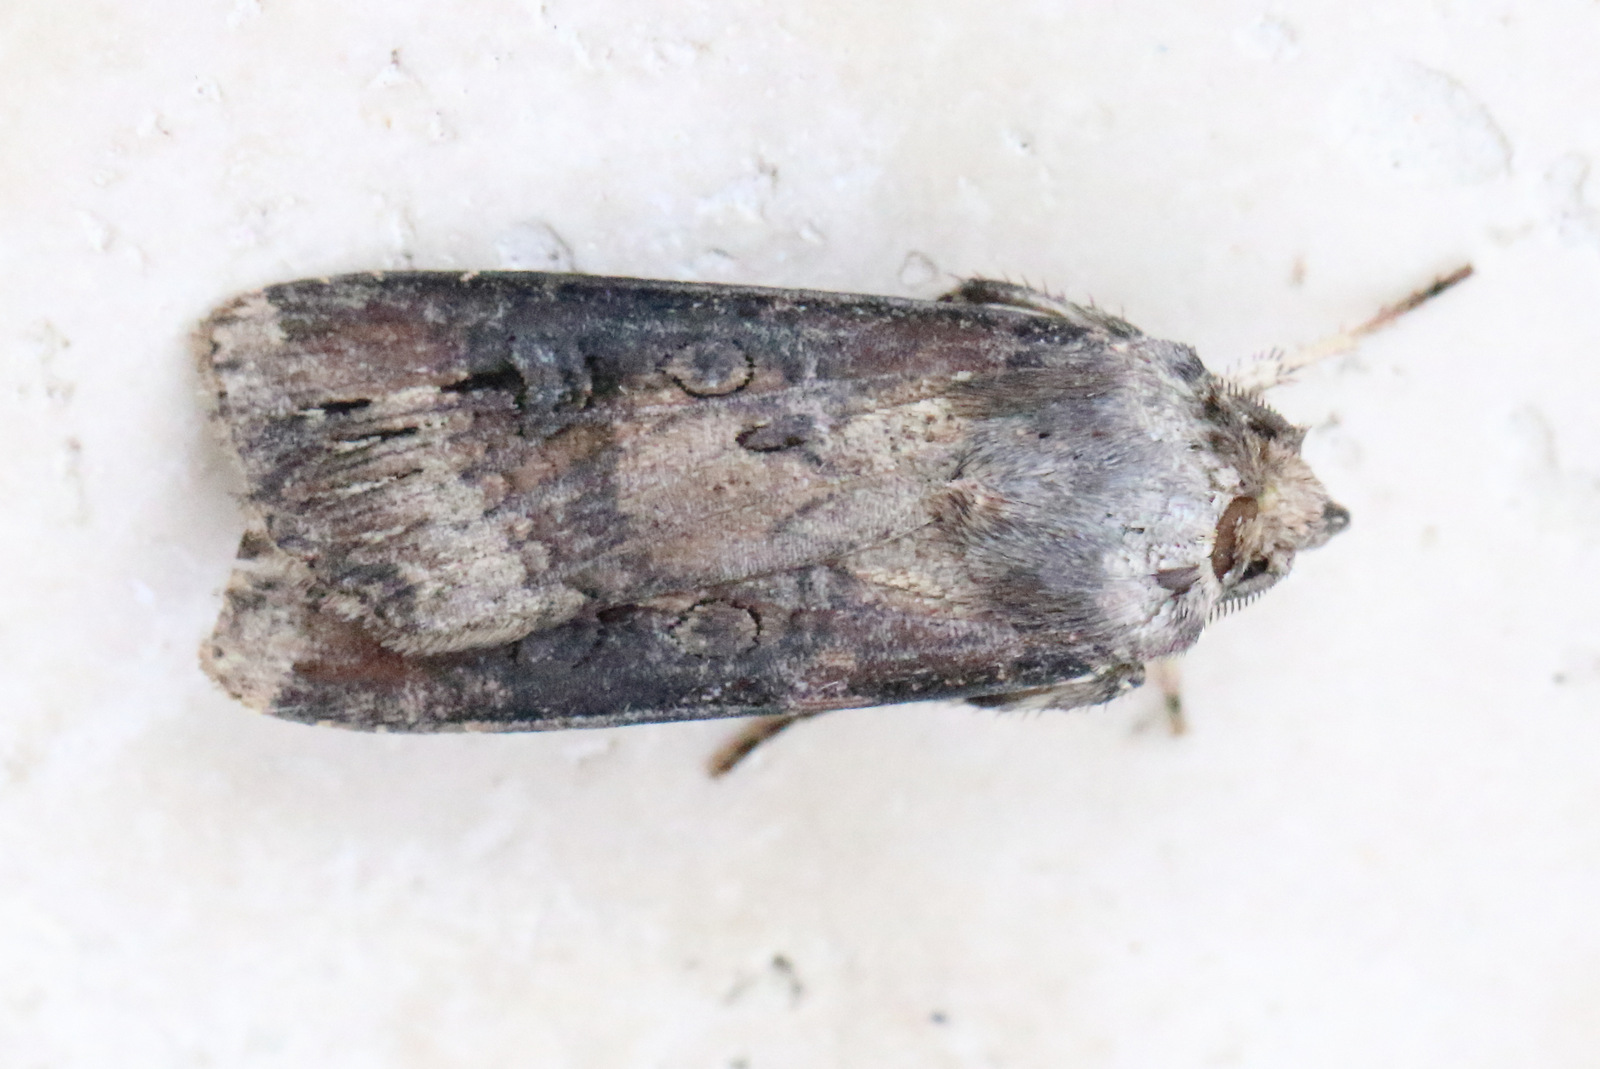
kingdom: Animalia
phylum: Arthropoda
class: Insecta
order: Lepidoptera
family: Noctuidae
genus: Agrotis
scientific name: Agrotis ipsilon
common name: Dark sword-grass
